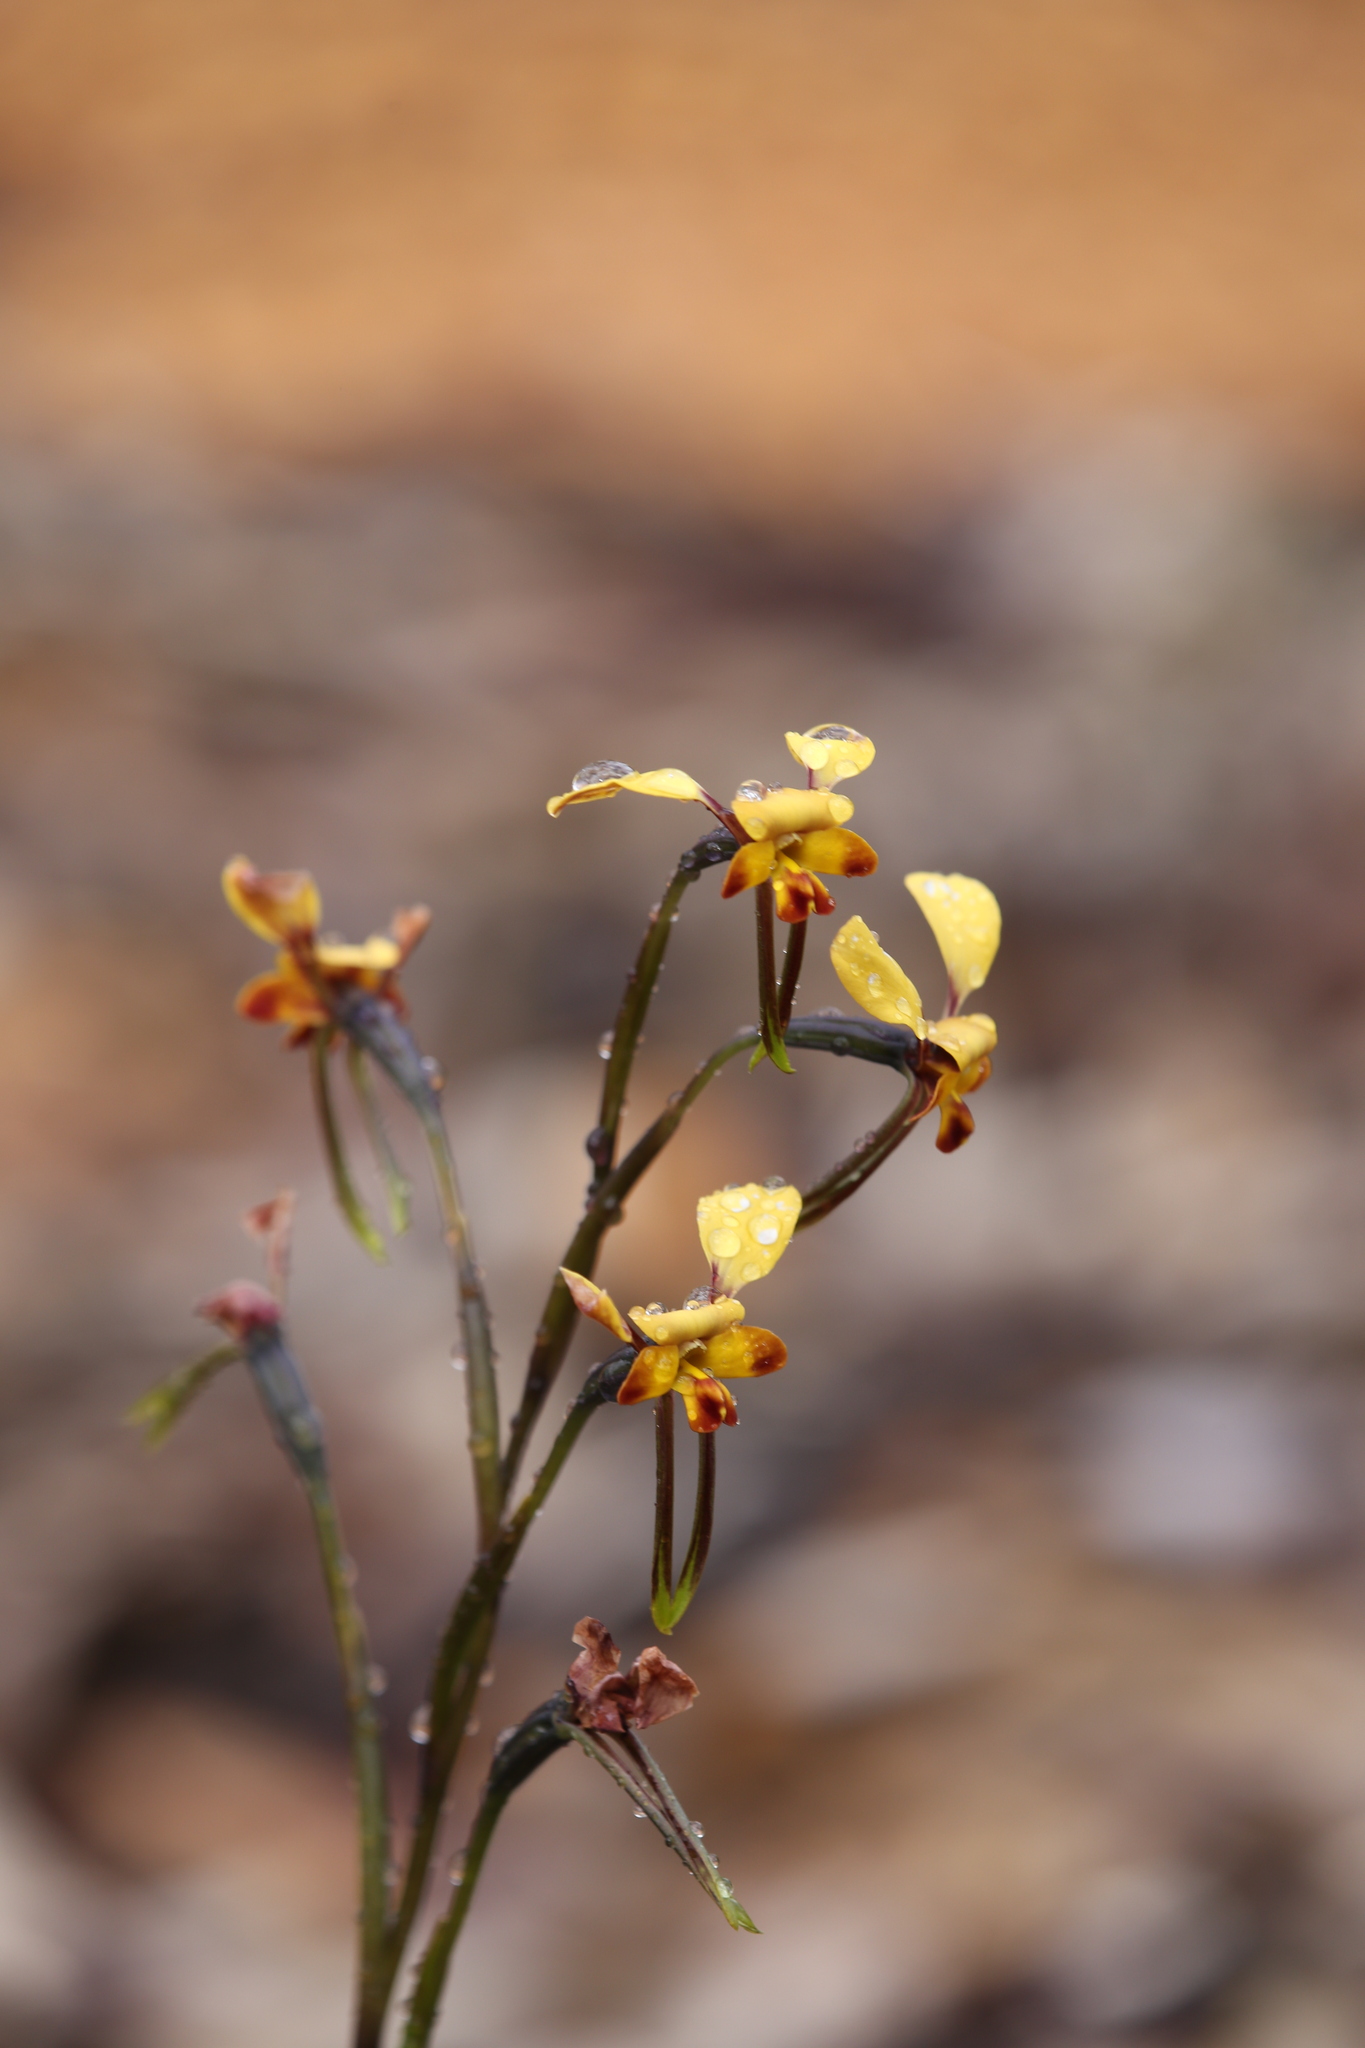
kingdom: Plantae
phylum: Tracheophyta
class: Liliopsida
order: Asparagales
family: Orchidaceae
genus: Diuris
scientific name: Diuris porrifolia
